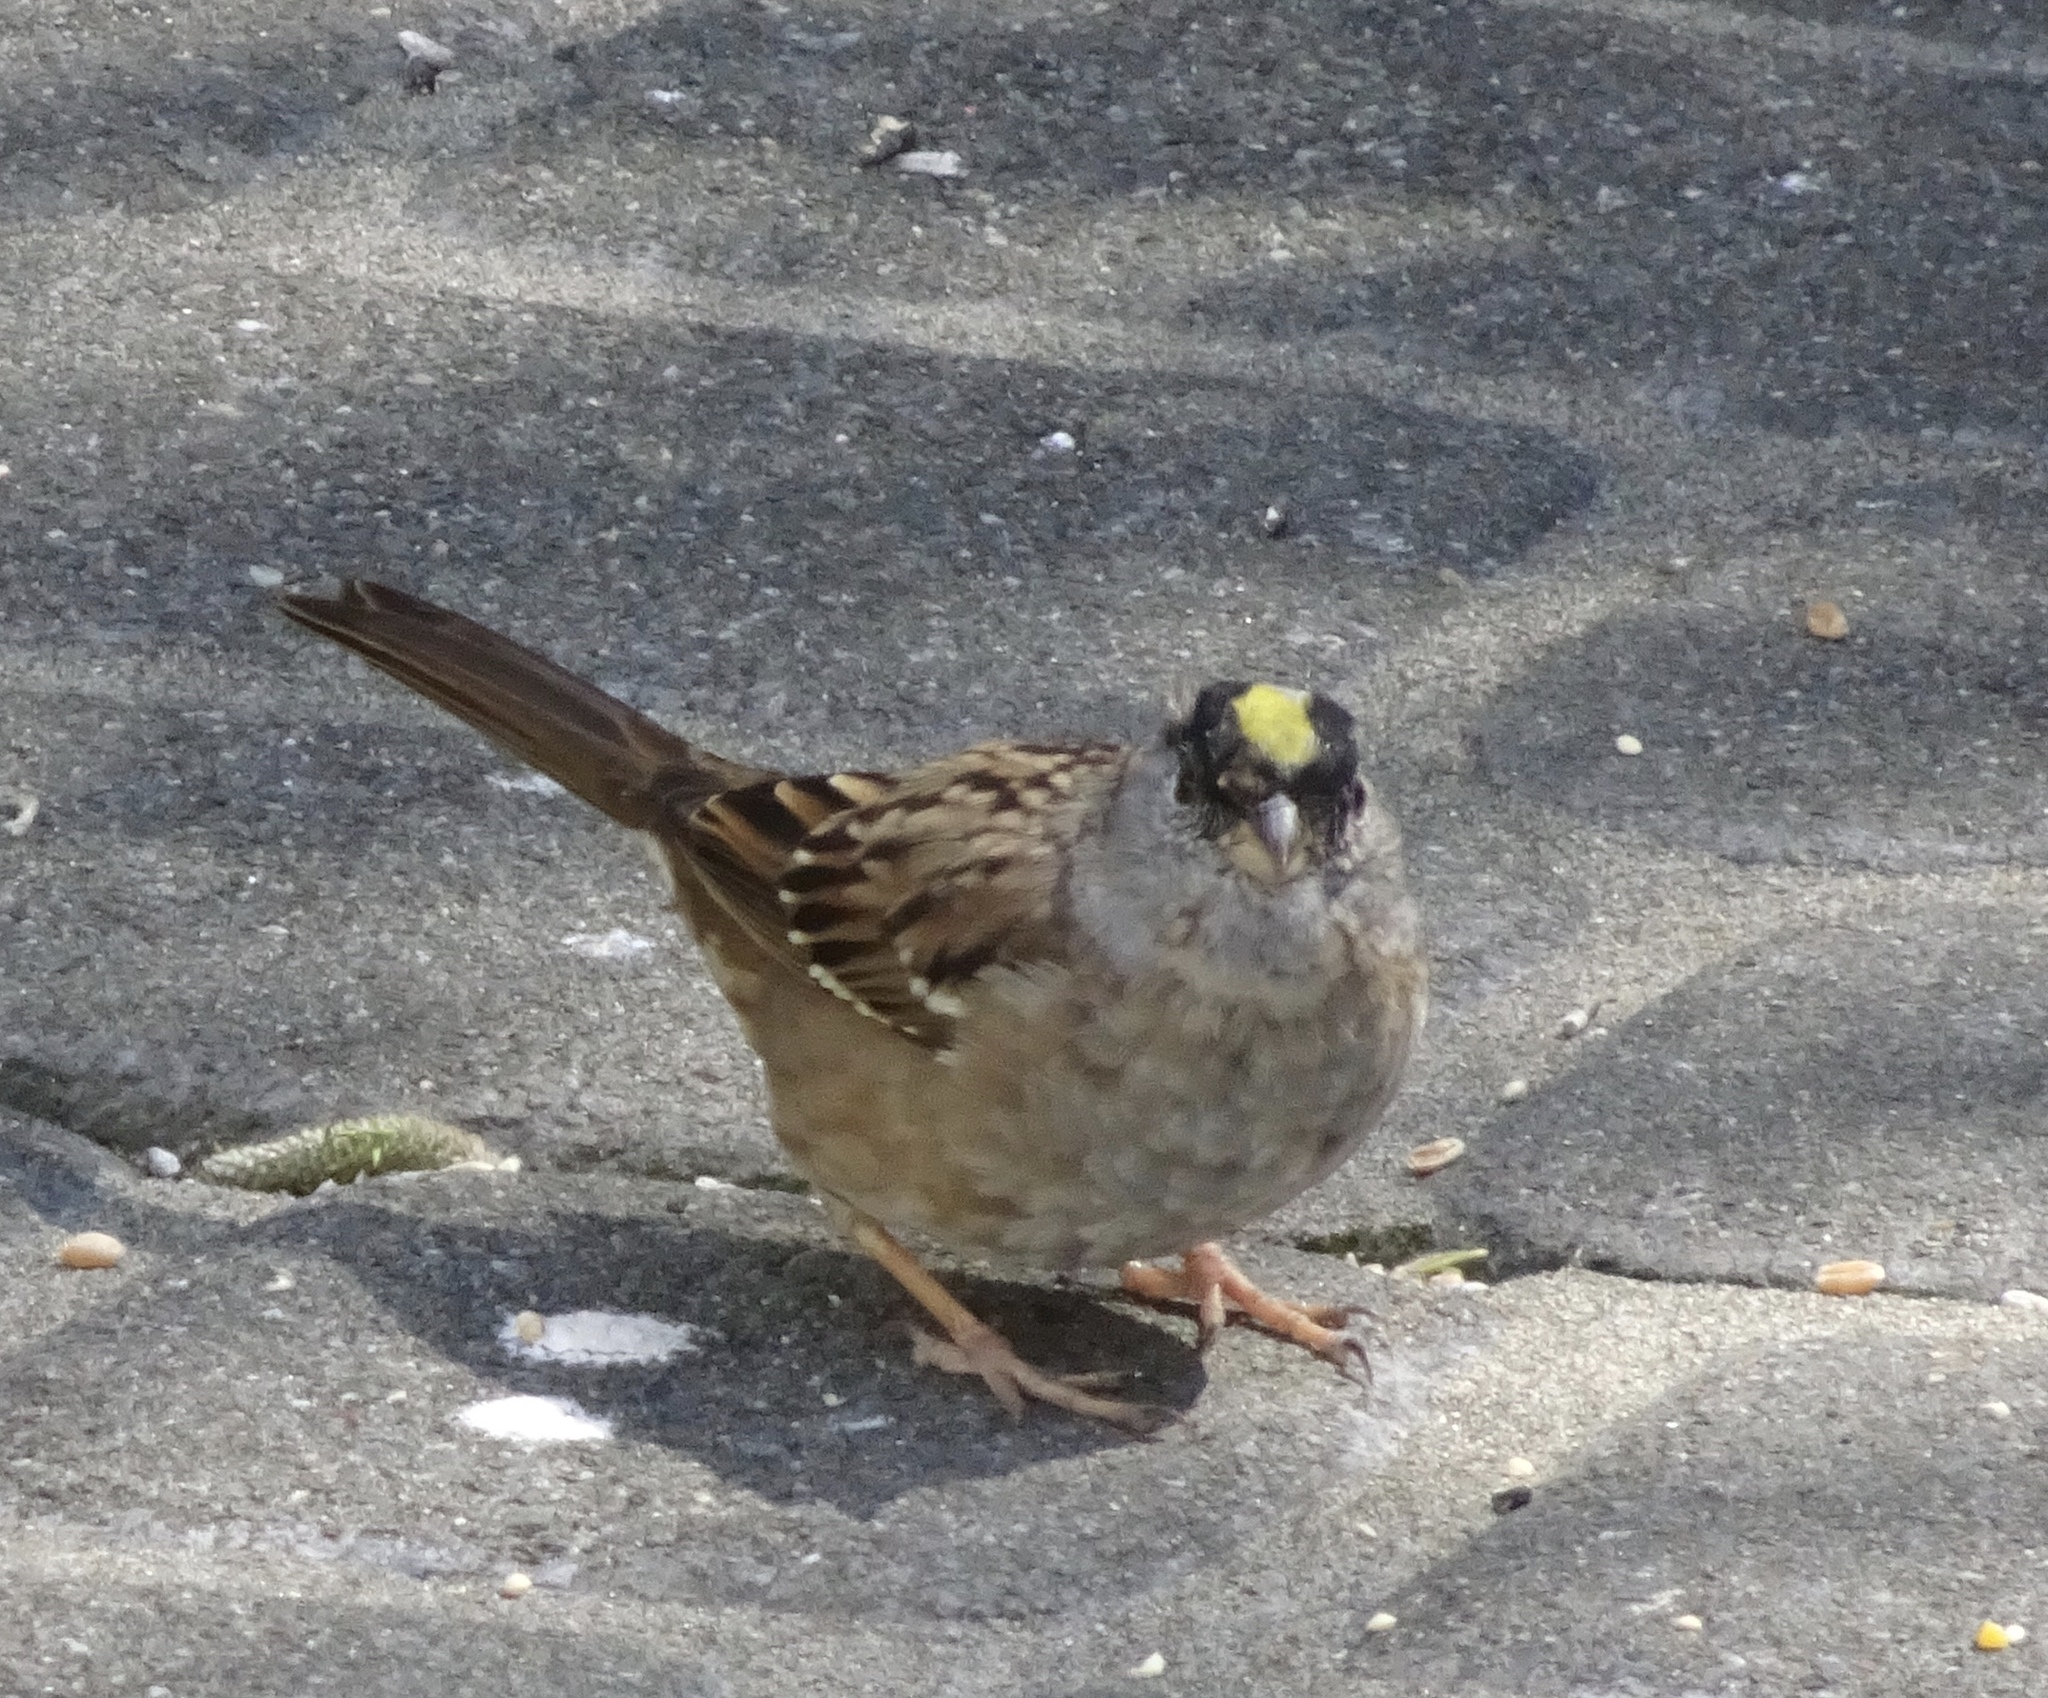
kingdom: Animalia
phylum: Chordata
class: Aves
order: Passeriformes
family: Passerellidae
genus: Zonotrichia
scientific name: Zonotrichia atricapilla
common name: Golden-crowned sparrow
